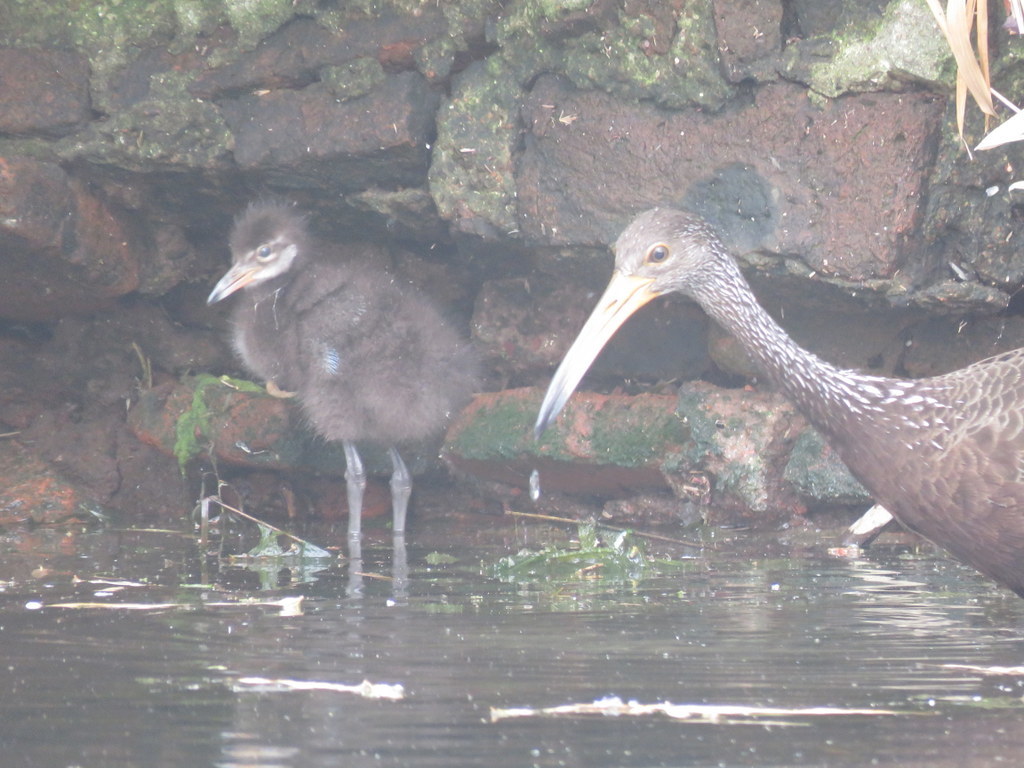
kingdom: Animalia
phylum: Chordata
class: Aves
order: Gruiformes
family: Aramidae
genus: Aramus
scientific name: Aramus guarauna
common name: Limpkin
